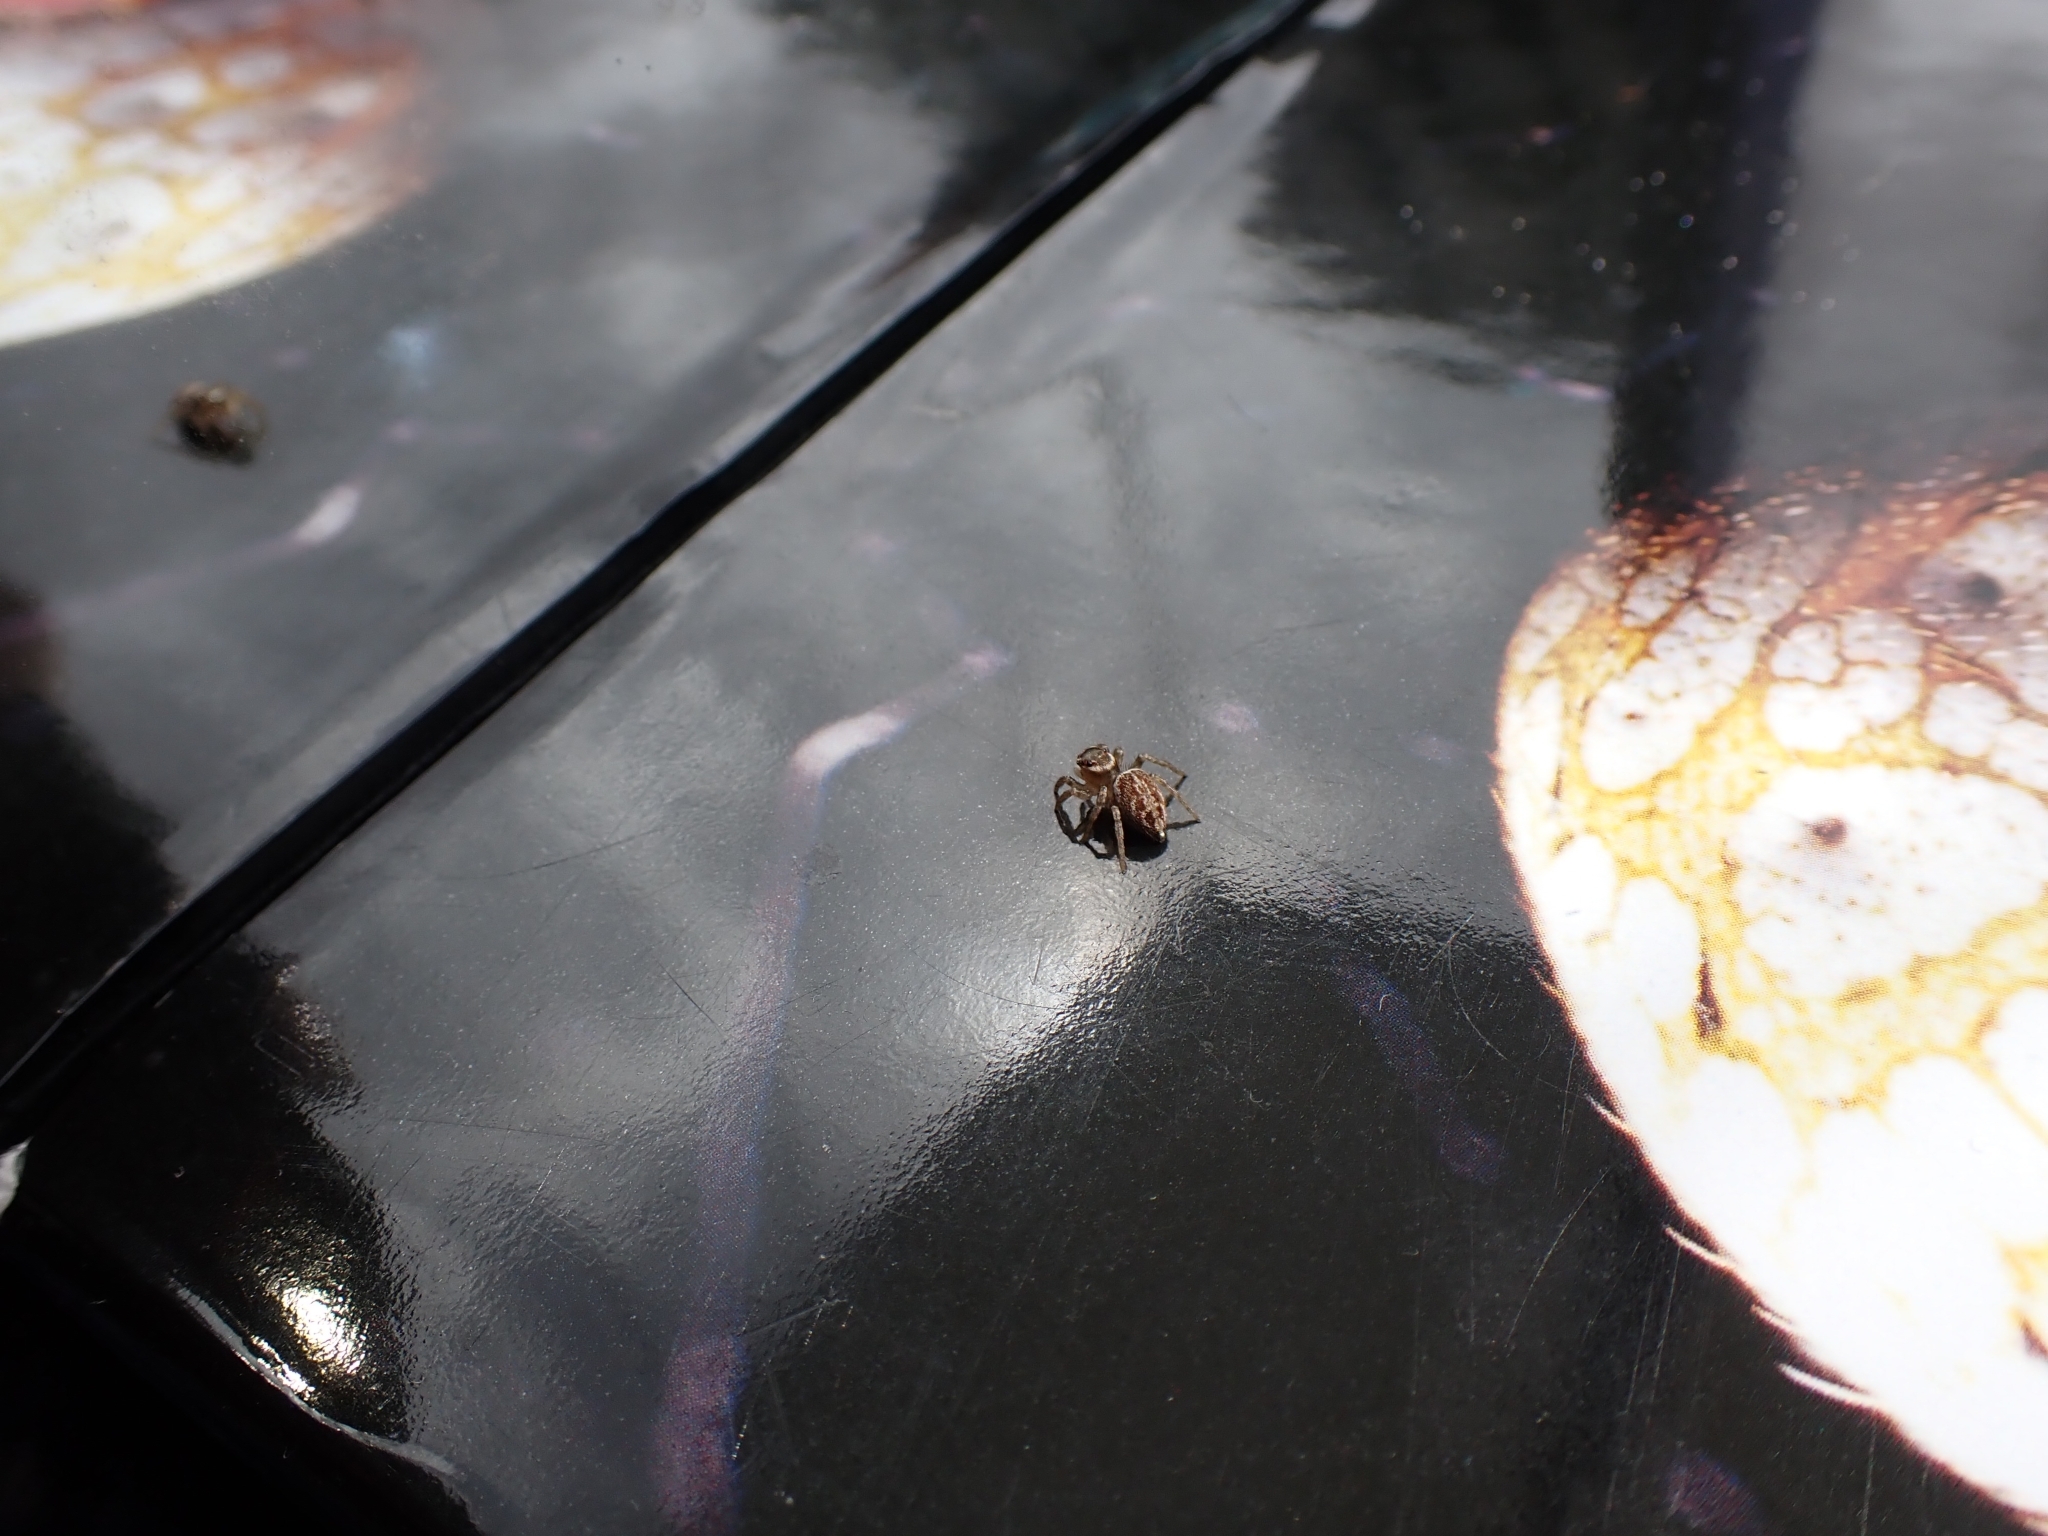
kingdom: Animalia
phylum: Arthropoda
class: Arachnida
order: Araneae
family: Salticidae
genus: Maratus
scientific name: Maratus griseus
